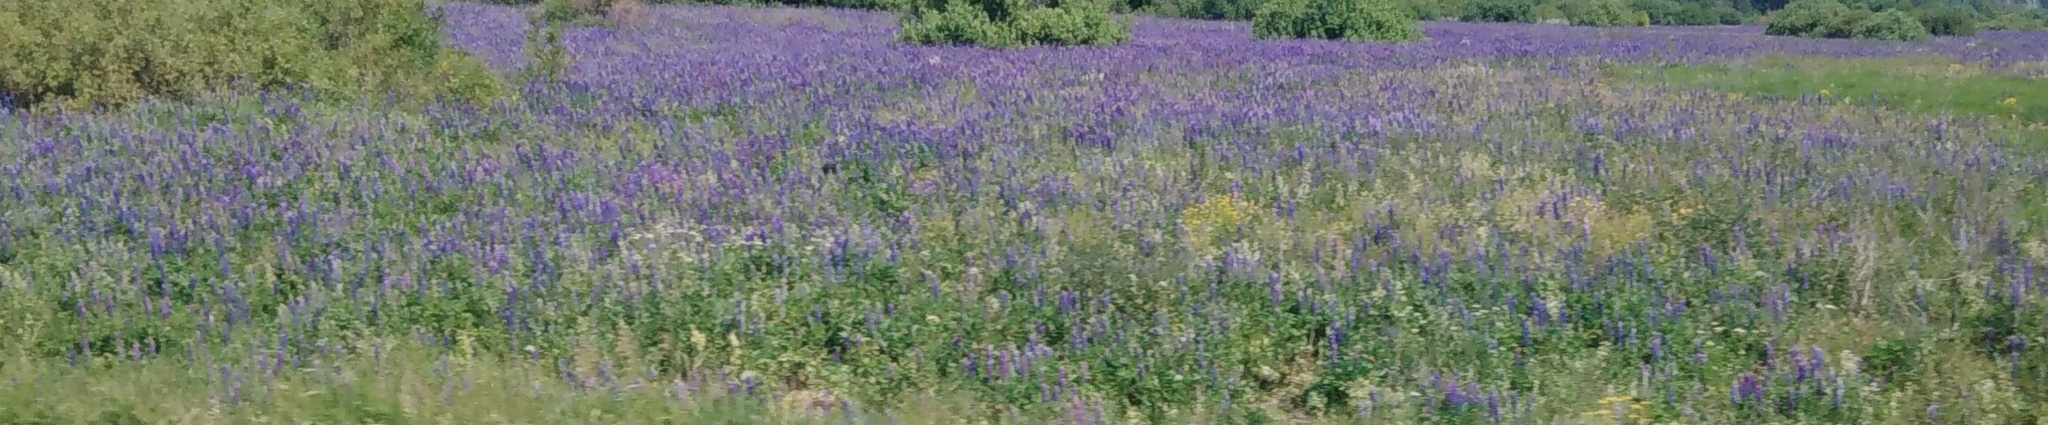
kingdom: Plantae
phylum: Tracheophyta
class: Magnoliopsida
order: Fabales
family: Fabaceae
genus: Lupinus
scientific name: Lupinus polyphyllus
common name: Garden lupin
